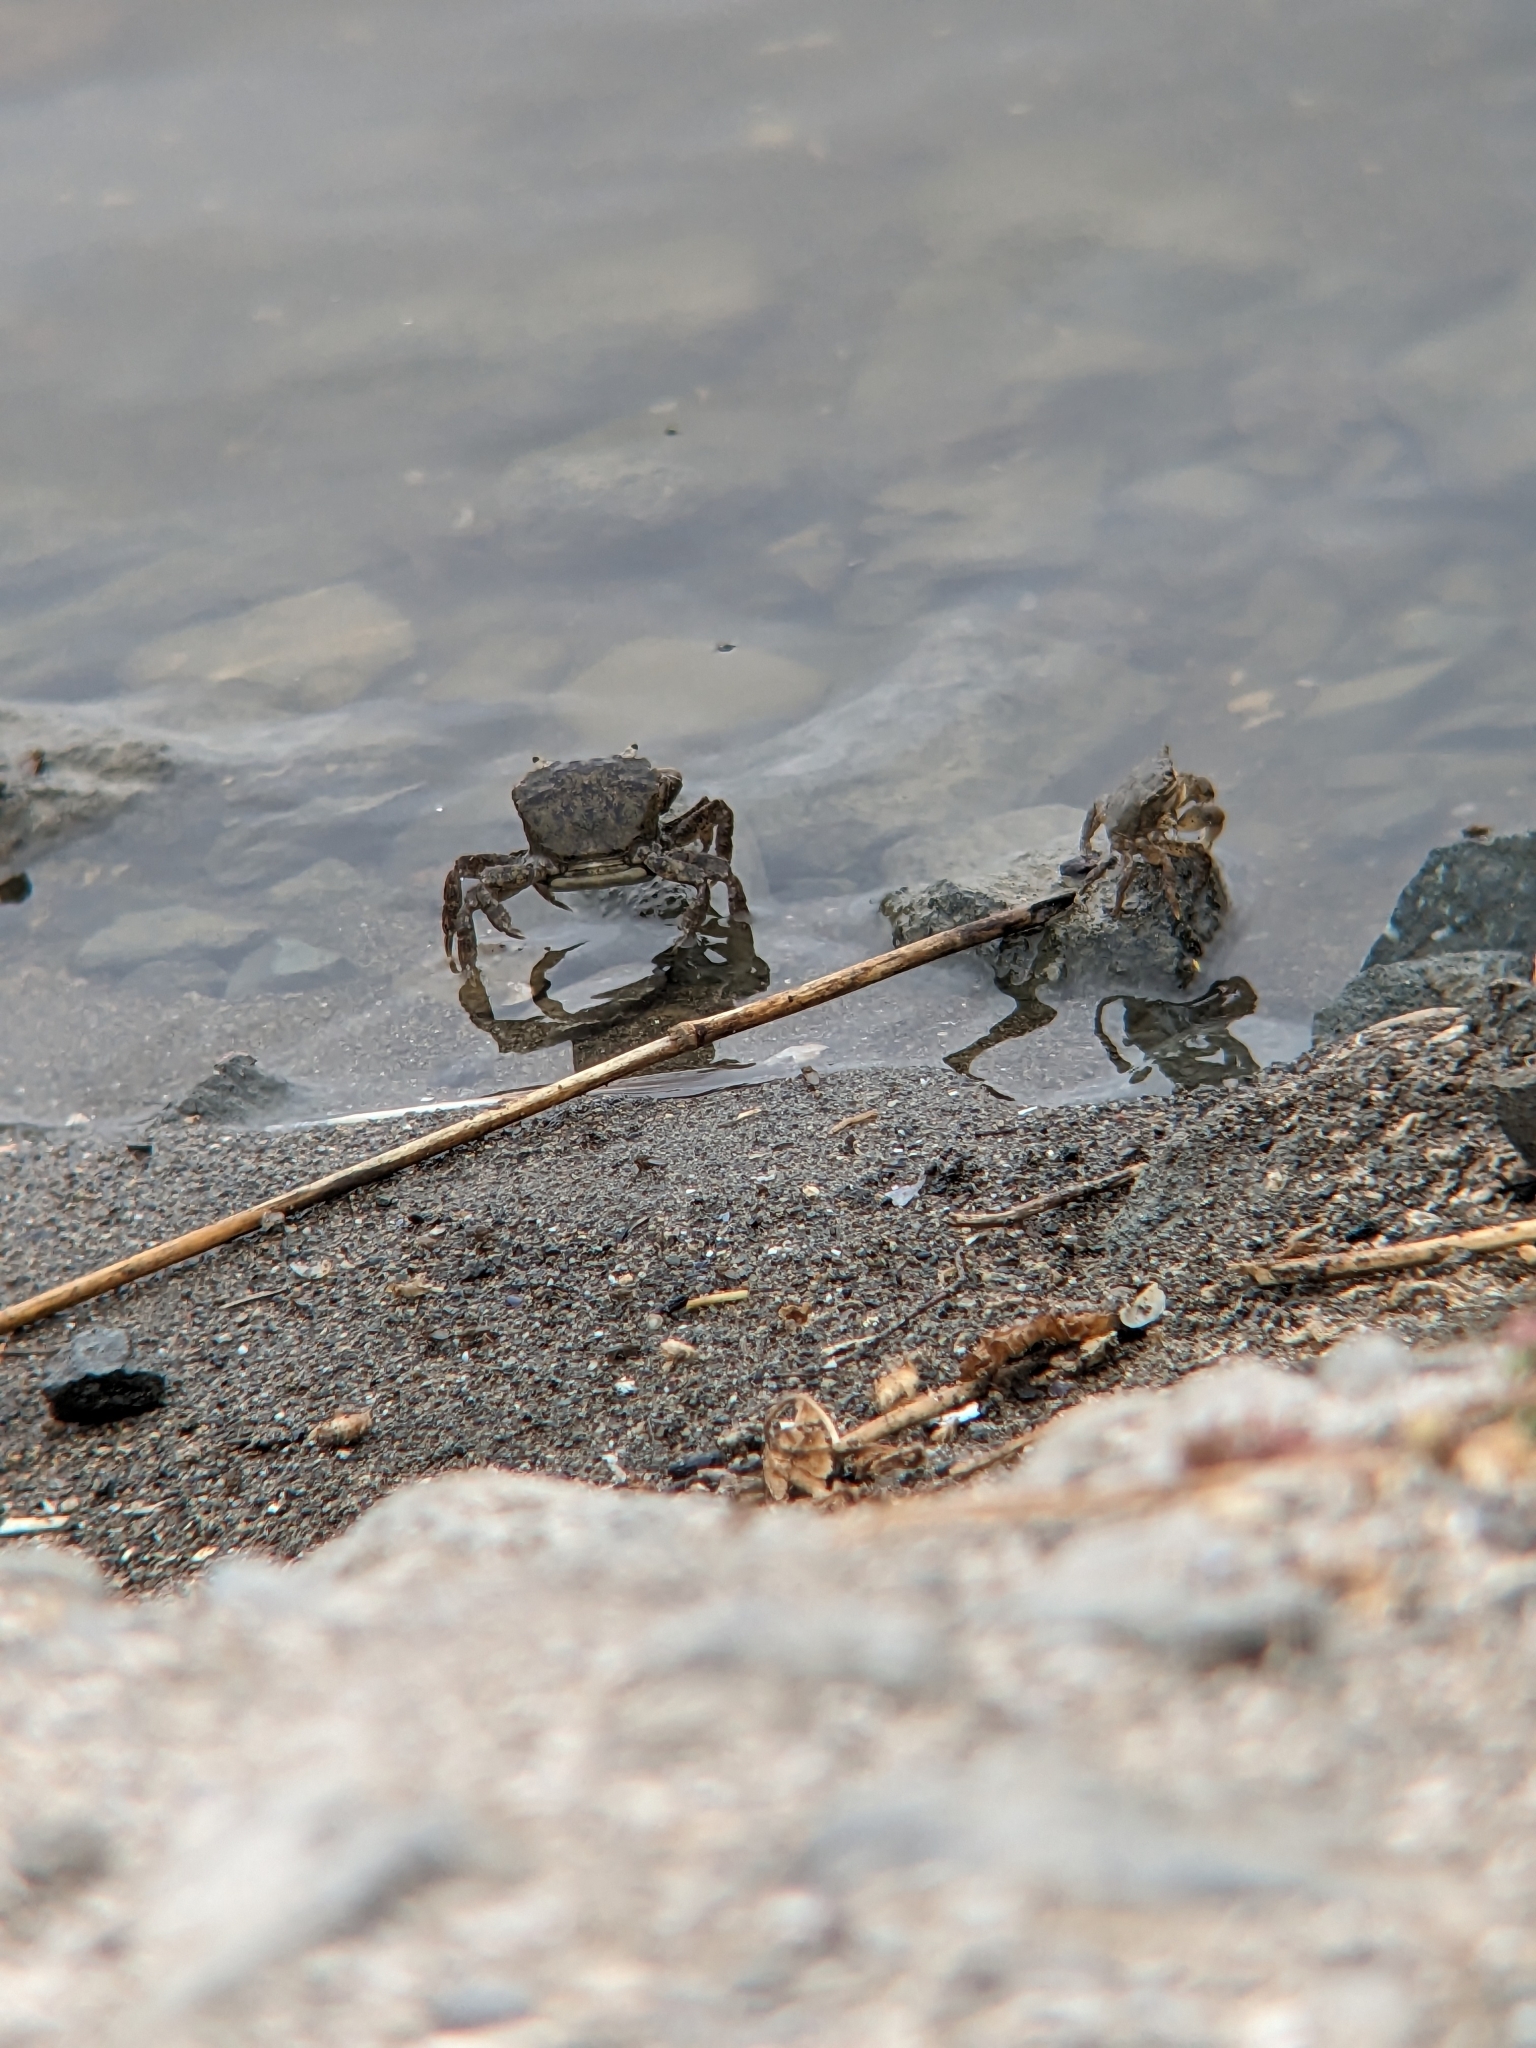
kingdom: Animalia
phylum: Arthropoda
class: Malacostraca
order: Decapoda
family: Varunidae
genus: Hemigrapsus
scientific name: Hemigrapsus oregonensis
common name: Yellow shore crab
